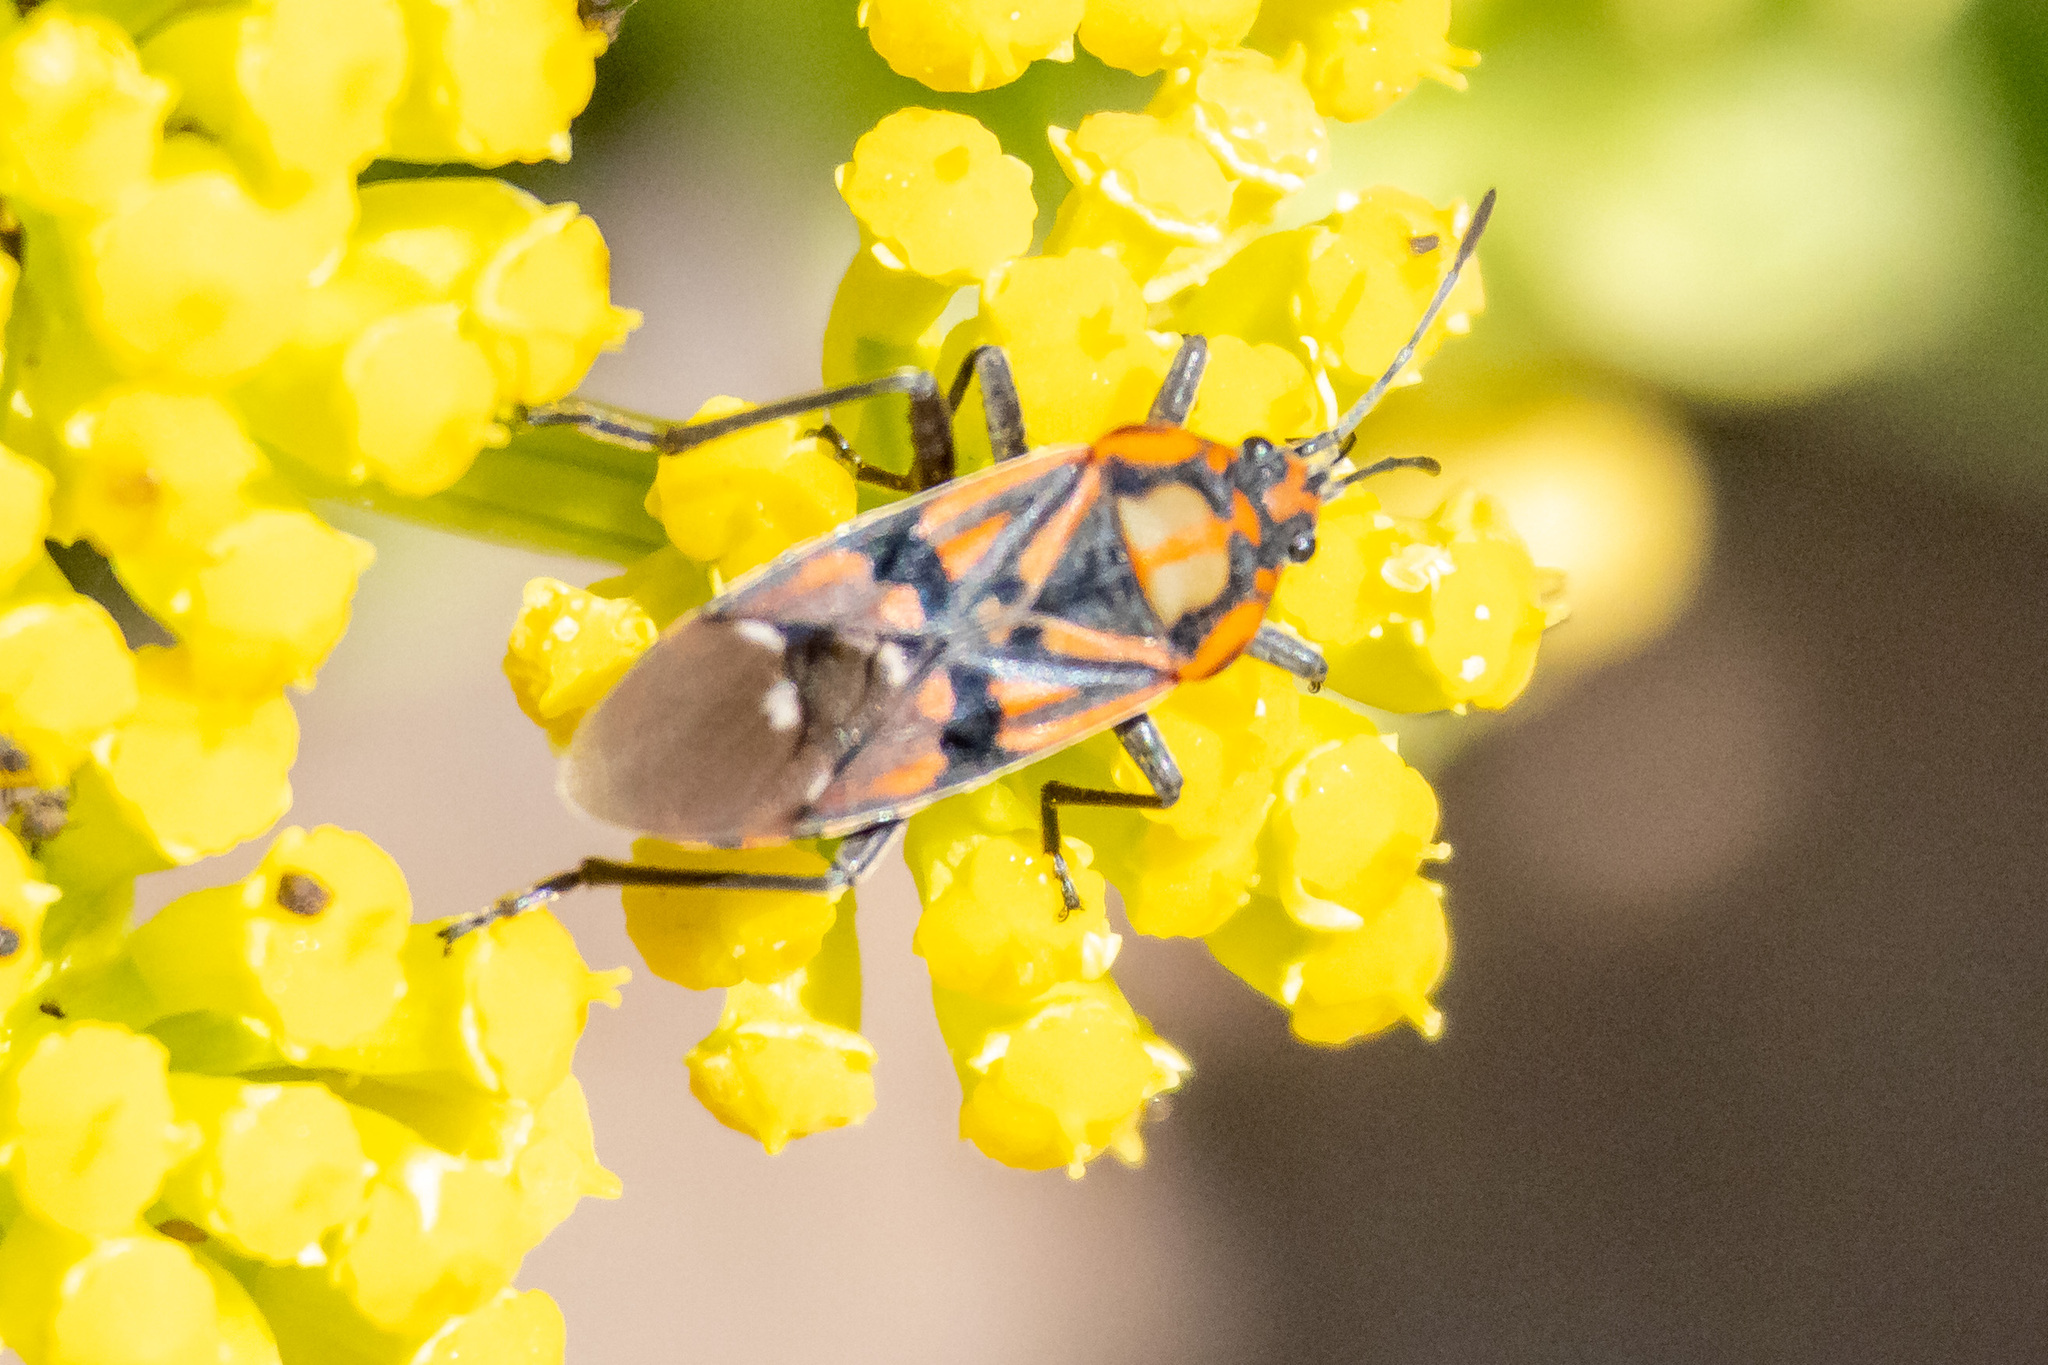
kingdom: Animalia
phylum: Arthropoda
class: Insecta
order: Hemiptera
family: Lygaeidae
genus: Spilostethus
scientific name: Spilostethus pandurus
